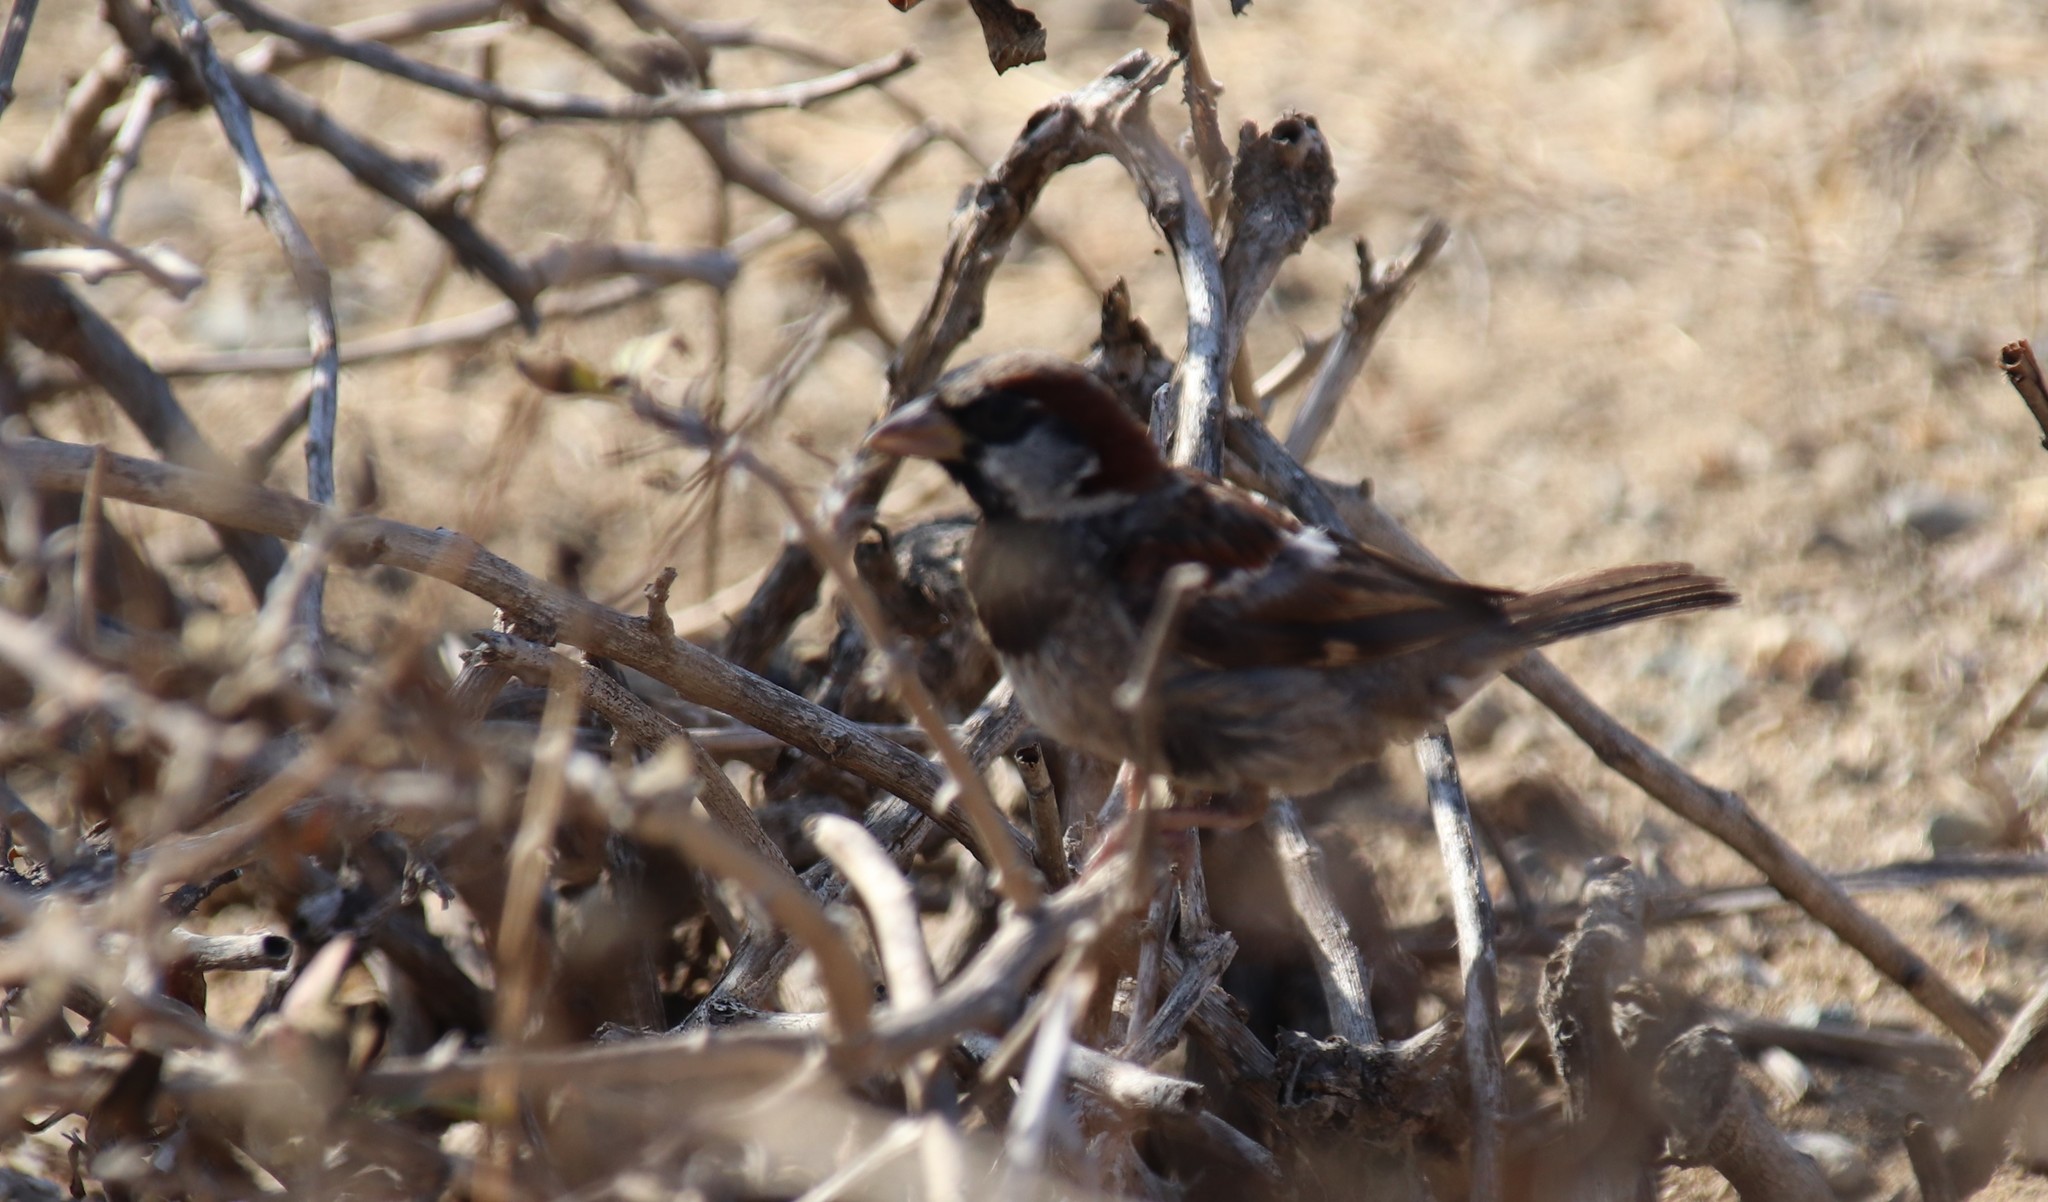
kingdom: Animalia
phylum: Chordata
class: Aves
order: Passeriformes
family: Passeridae
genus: Passer
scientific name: Passer domesticus
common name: House sparrow
